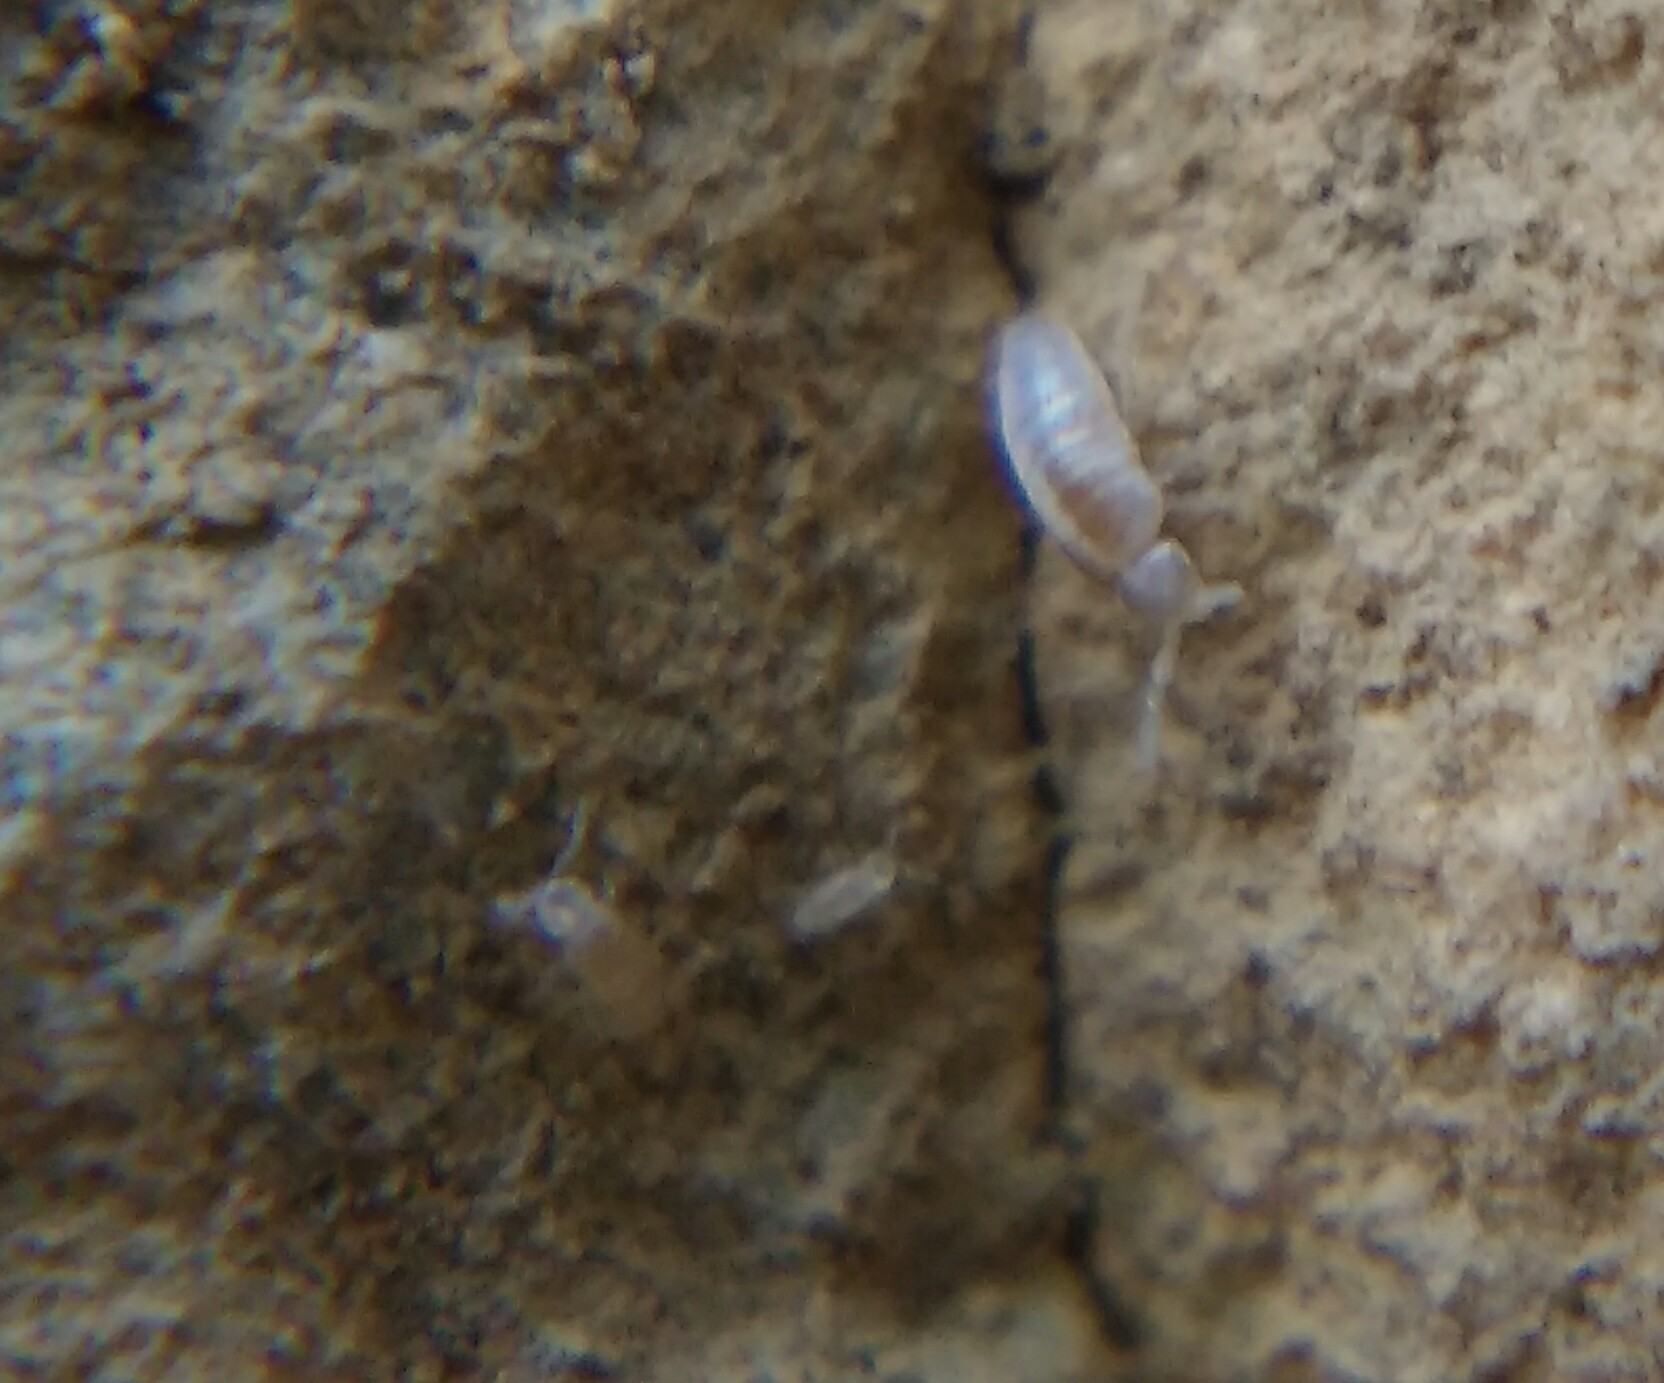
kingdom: Animalia
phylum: Arthropoda
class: Collembola
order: Entomobryomorpha
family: Paronellidae
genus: Cyphoderus
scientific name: Cyphoderus albinus
